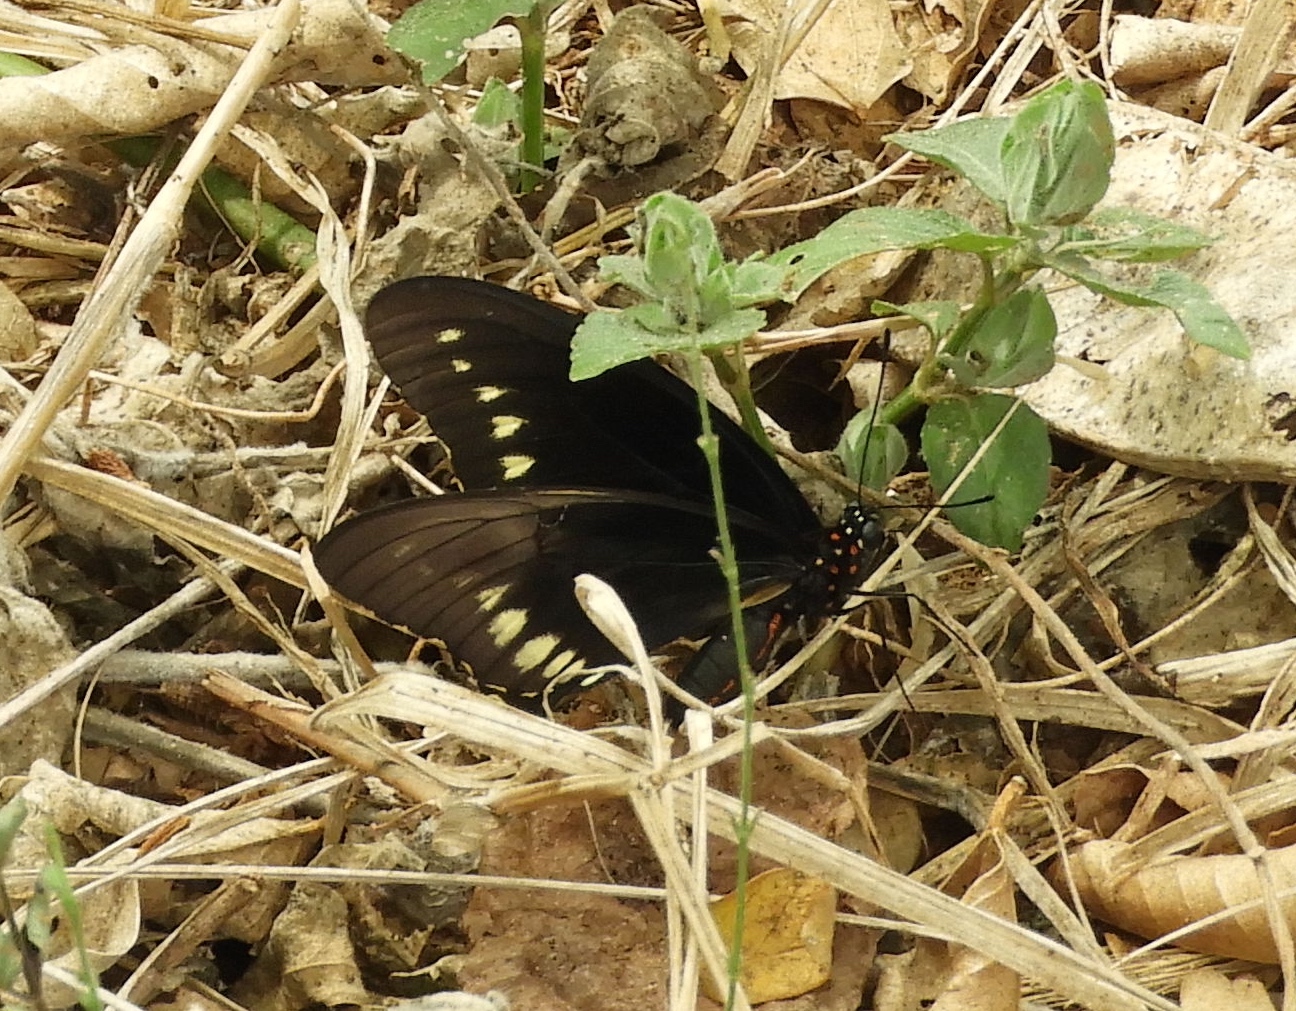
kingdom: Animalia
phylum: Arthropoda
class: Insecta
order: Lepidoptera
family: Papilionidae
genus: Battus
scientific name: Battus polydamas
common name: Polydamas swallowtail
